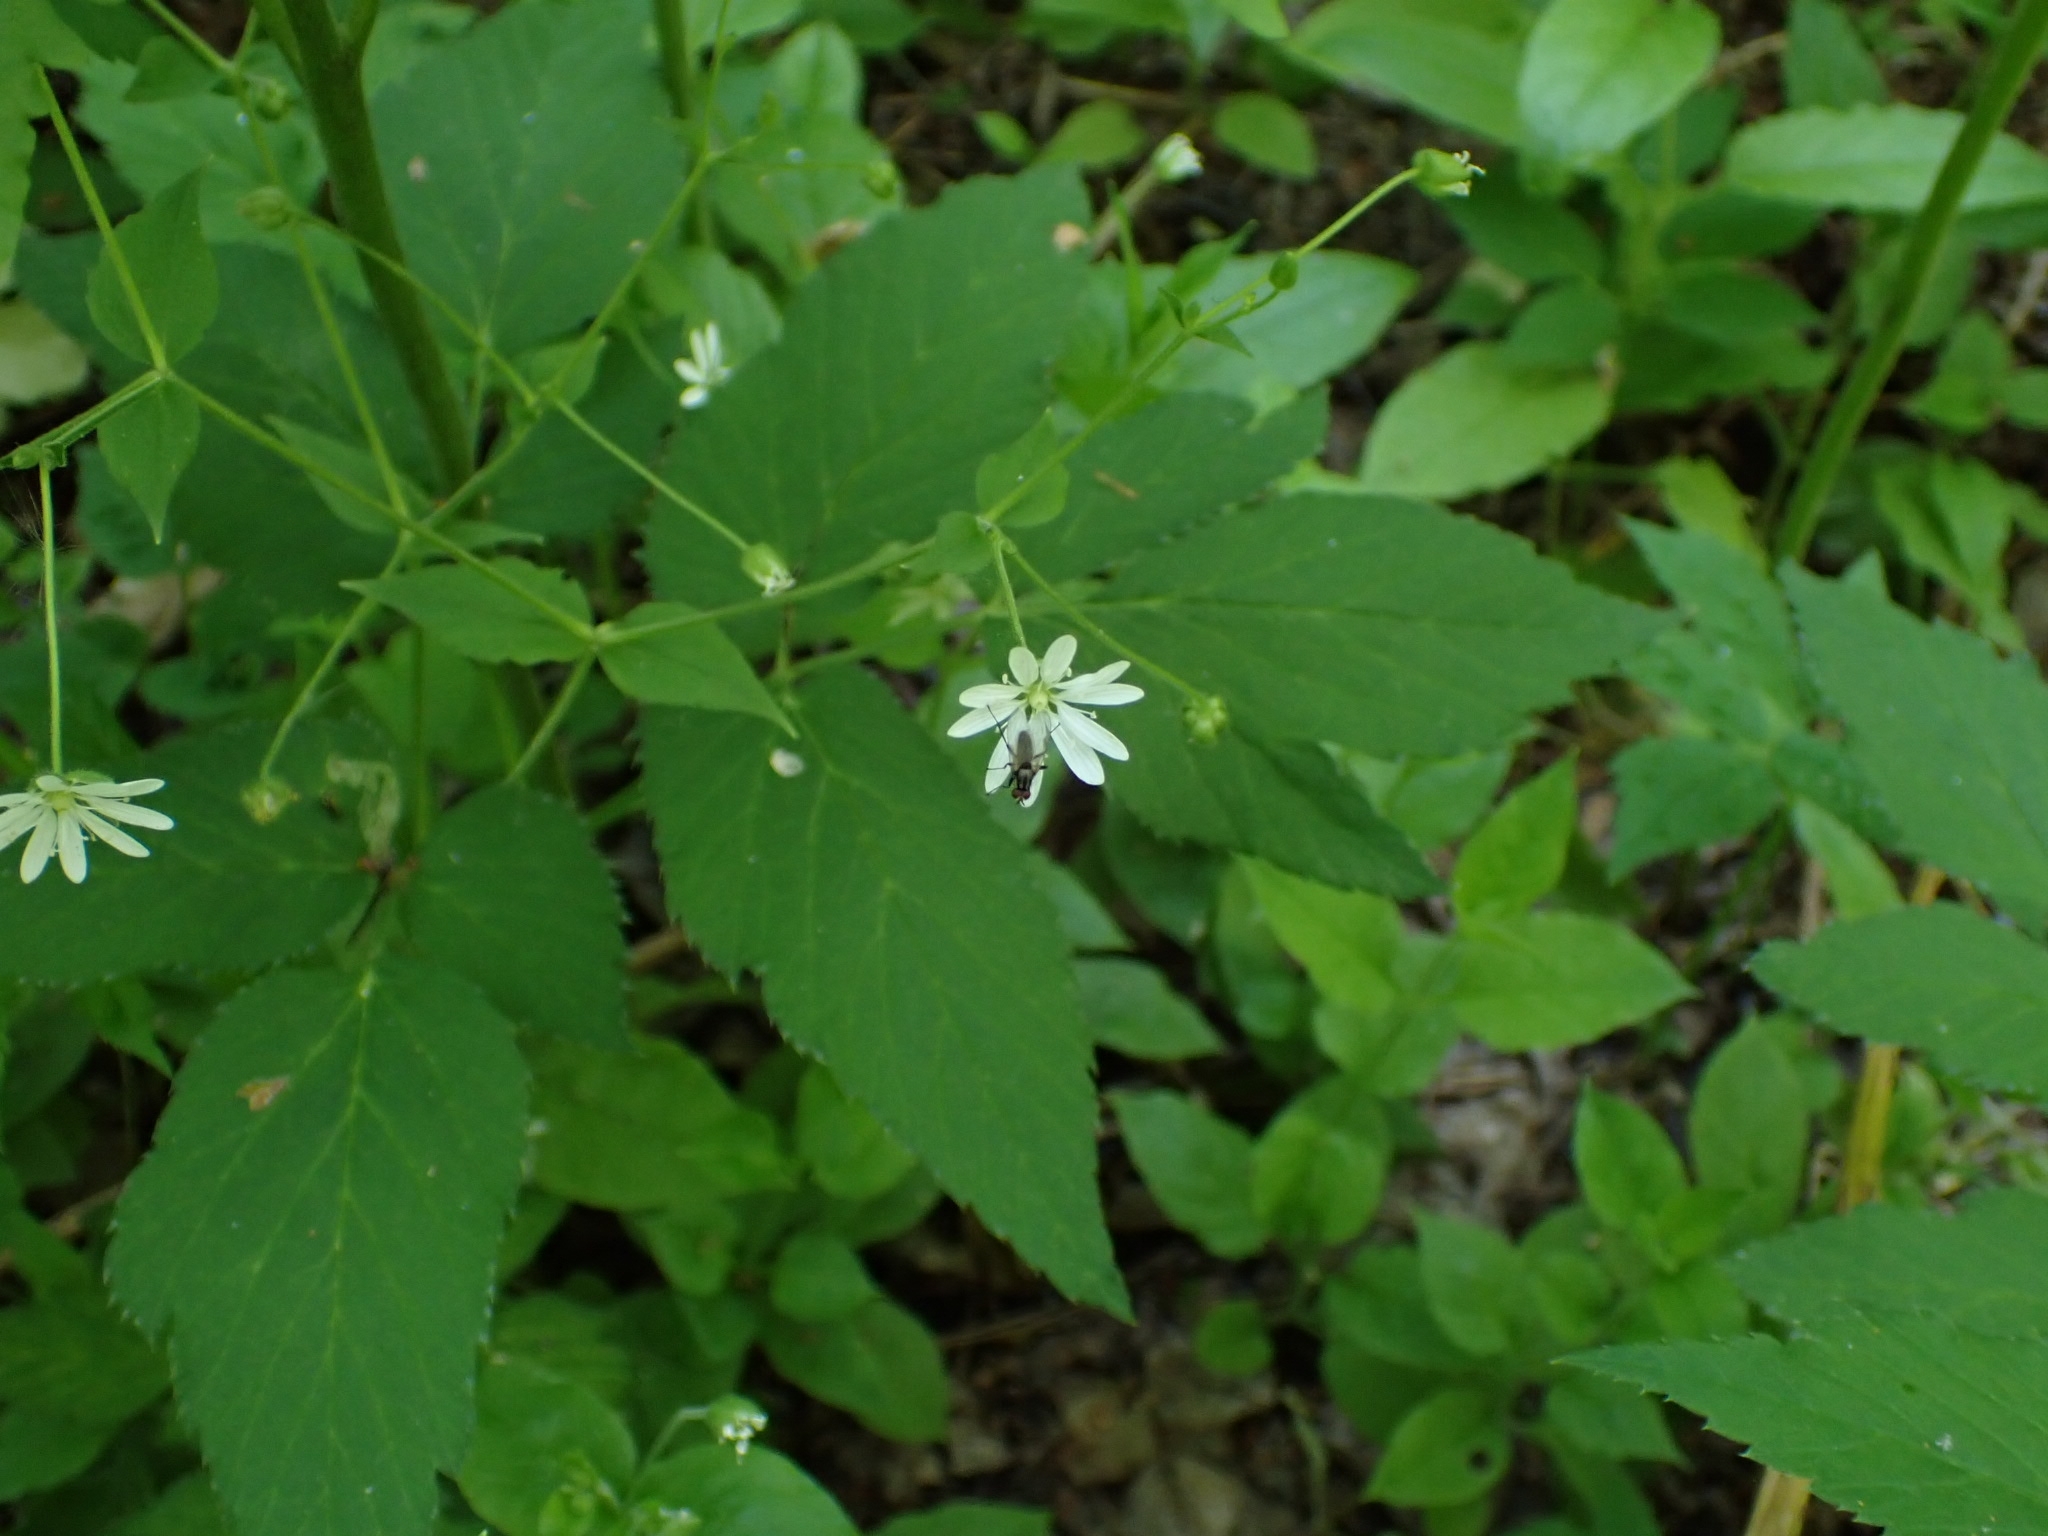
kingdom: Plantae
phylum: Tracheophyta
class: Magnoliopsida
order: Caryophyllales
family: Caryophyllaceae
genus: Stellaria
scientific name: Stellaria bungeana
